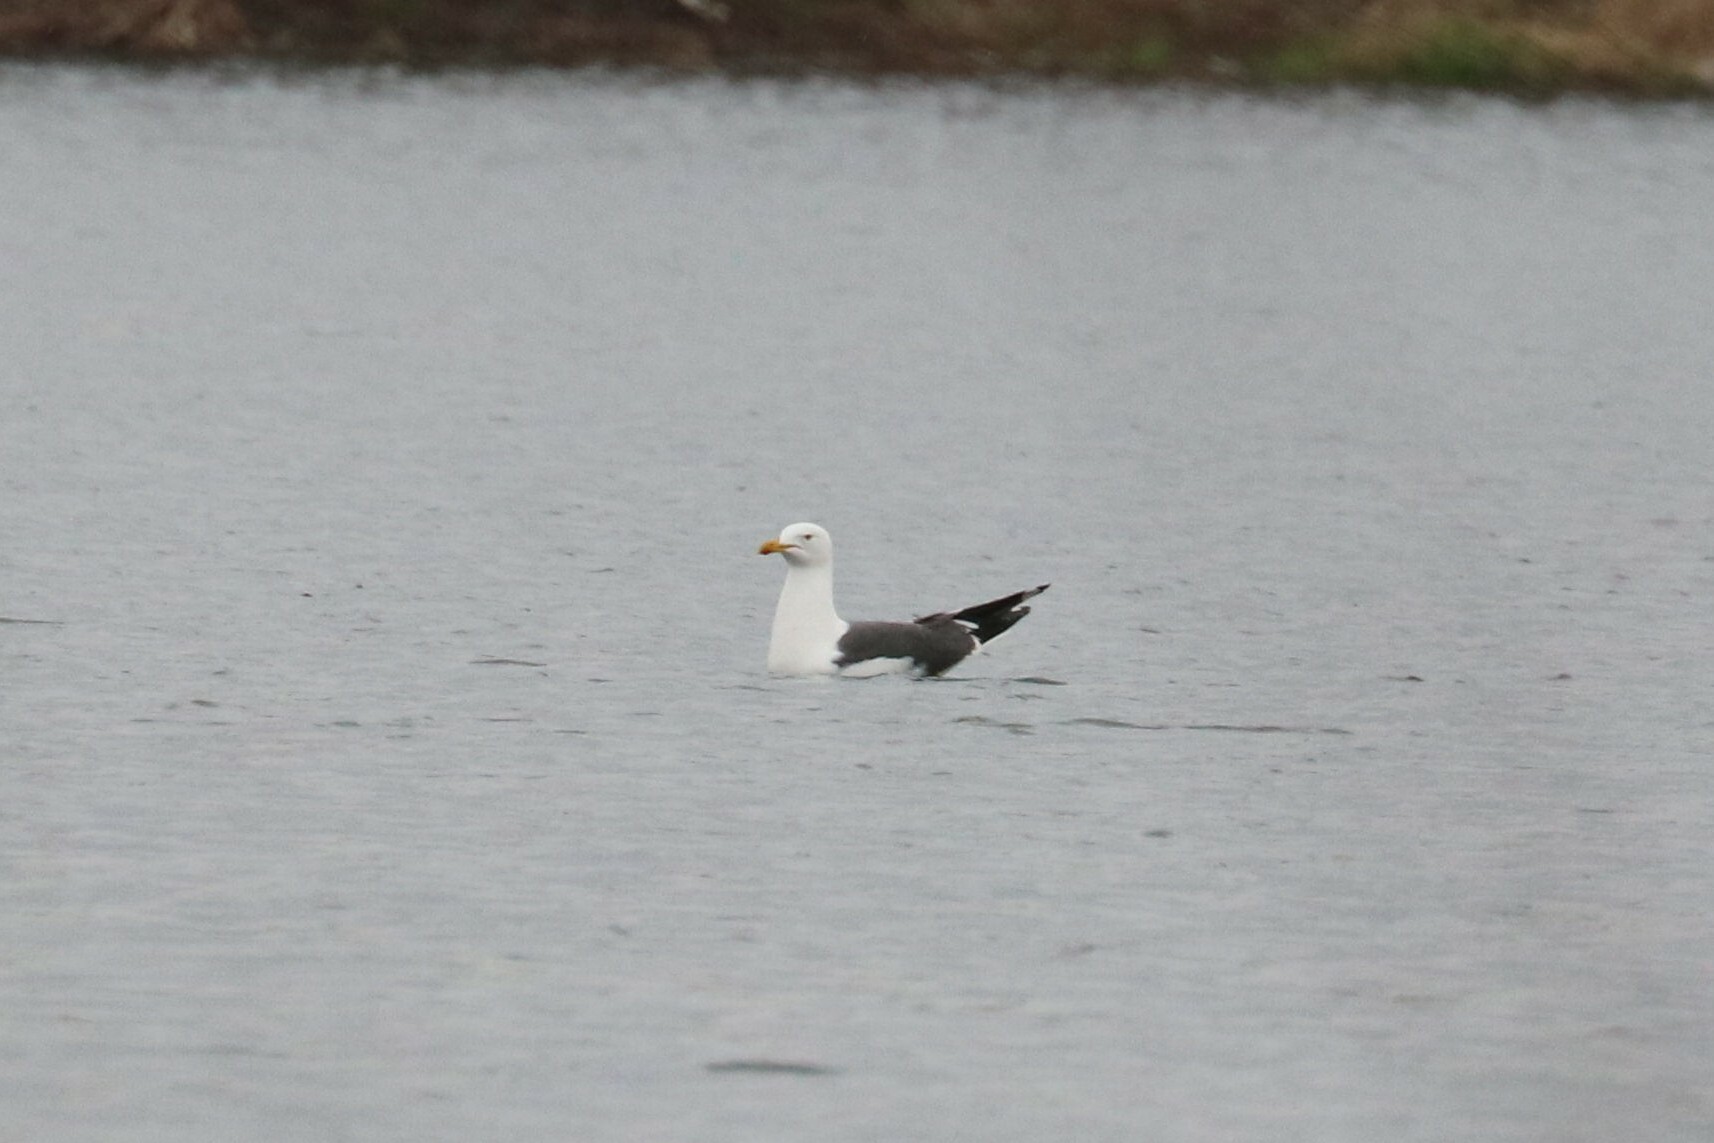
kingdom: Animalia
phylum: Chordata
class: Aves
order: Charadriiformes
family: Laridae
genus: Larus
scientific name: Larus fuscus
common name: Lesser black-backed gull
